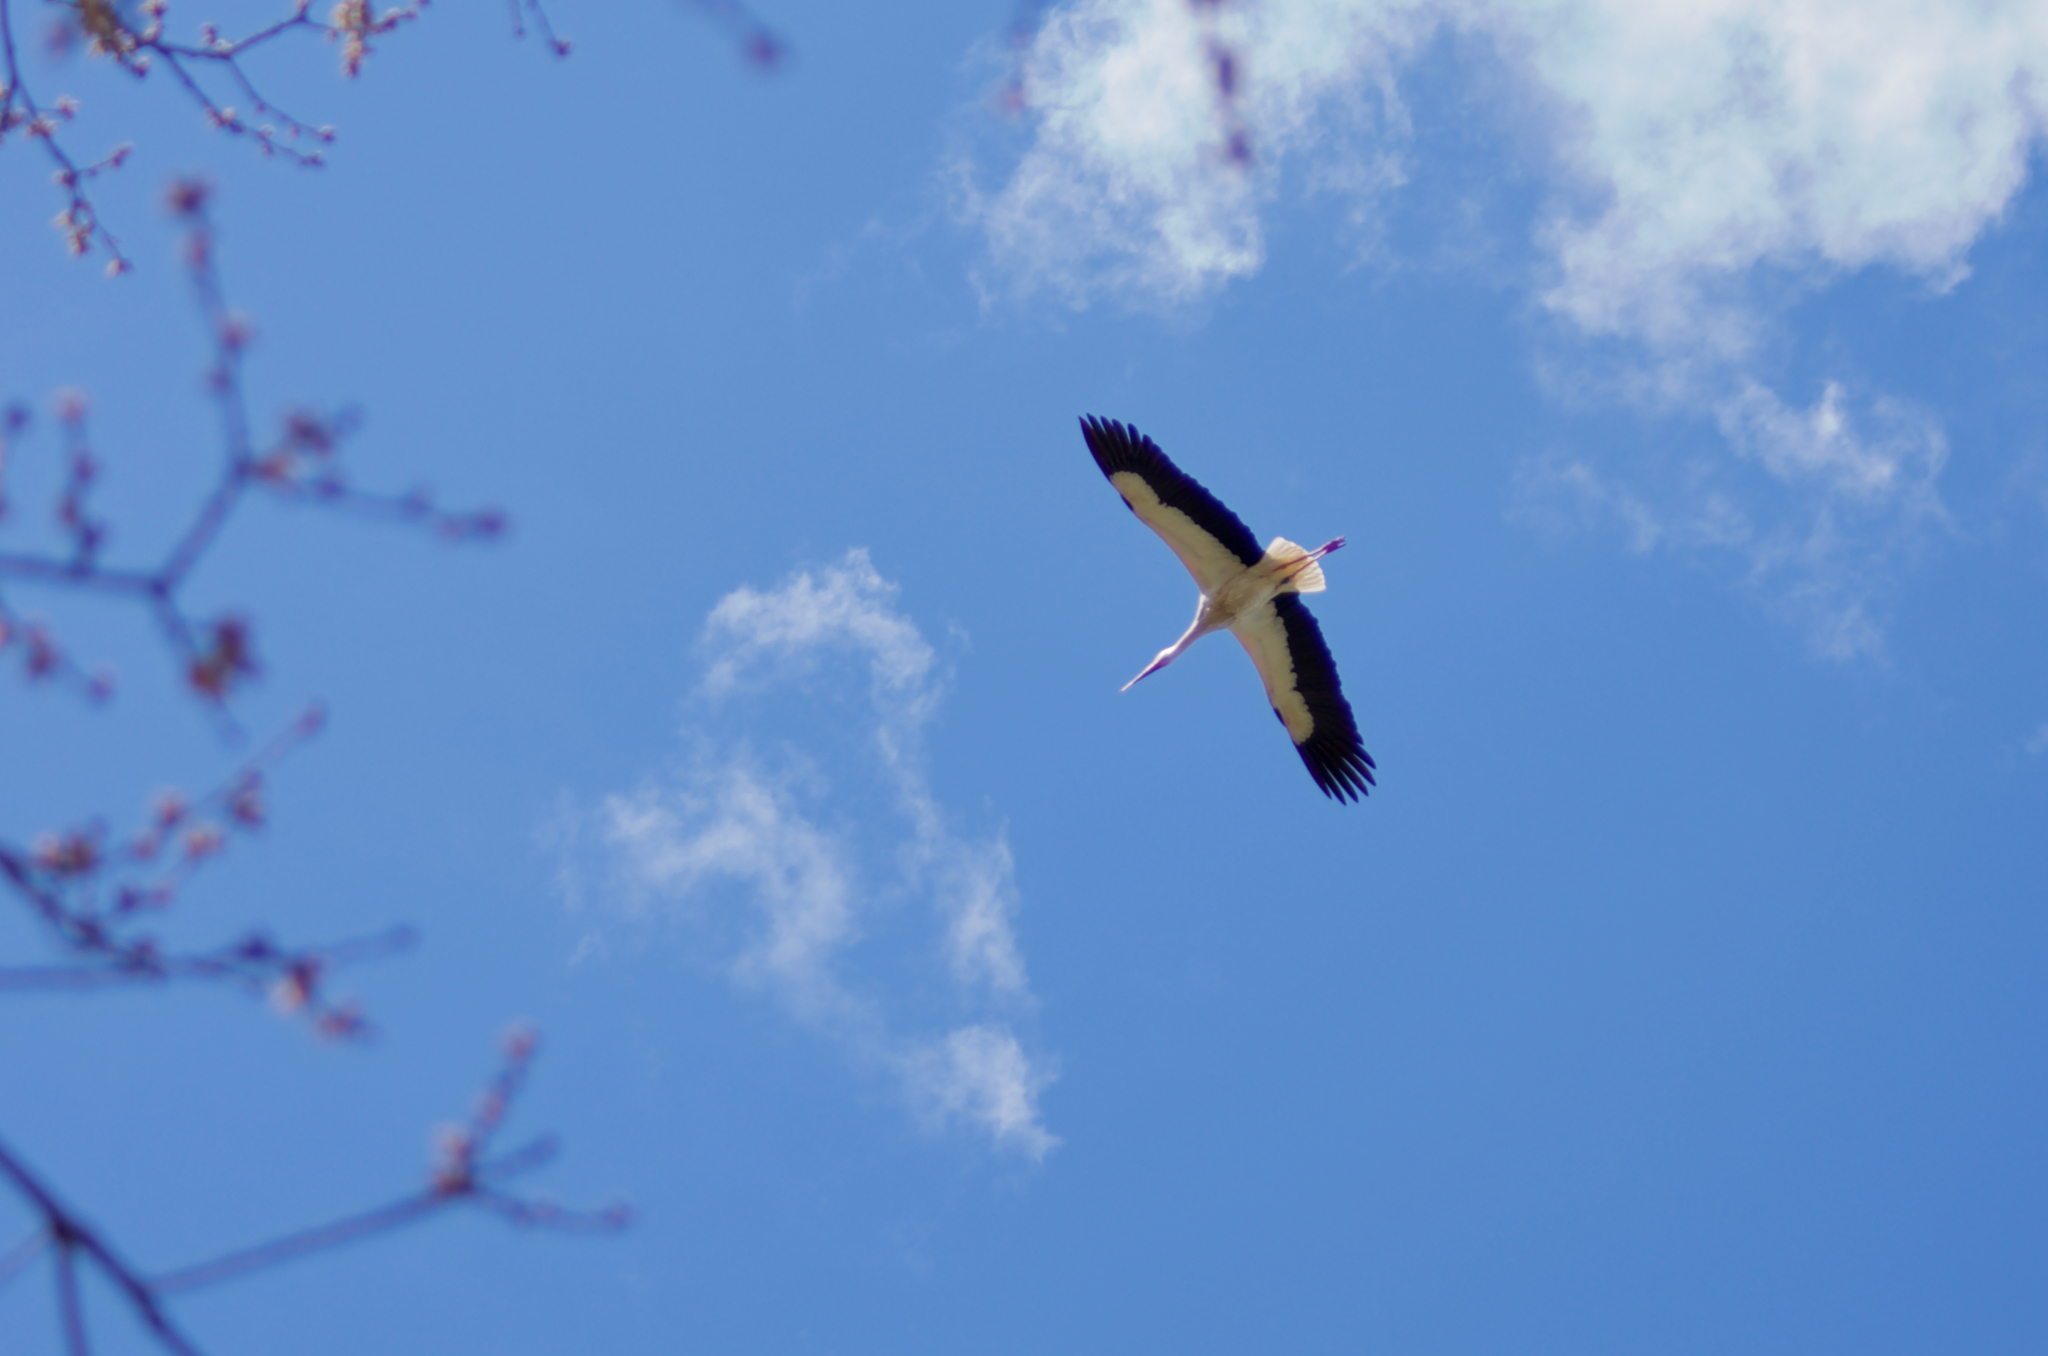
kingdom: Animalia
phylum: Chordata
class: Aves
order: Ciconiiformes
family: Ciconiidae
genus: Ciconia
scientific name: Ciconia ciconia
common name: White stork
